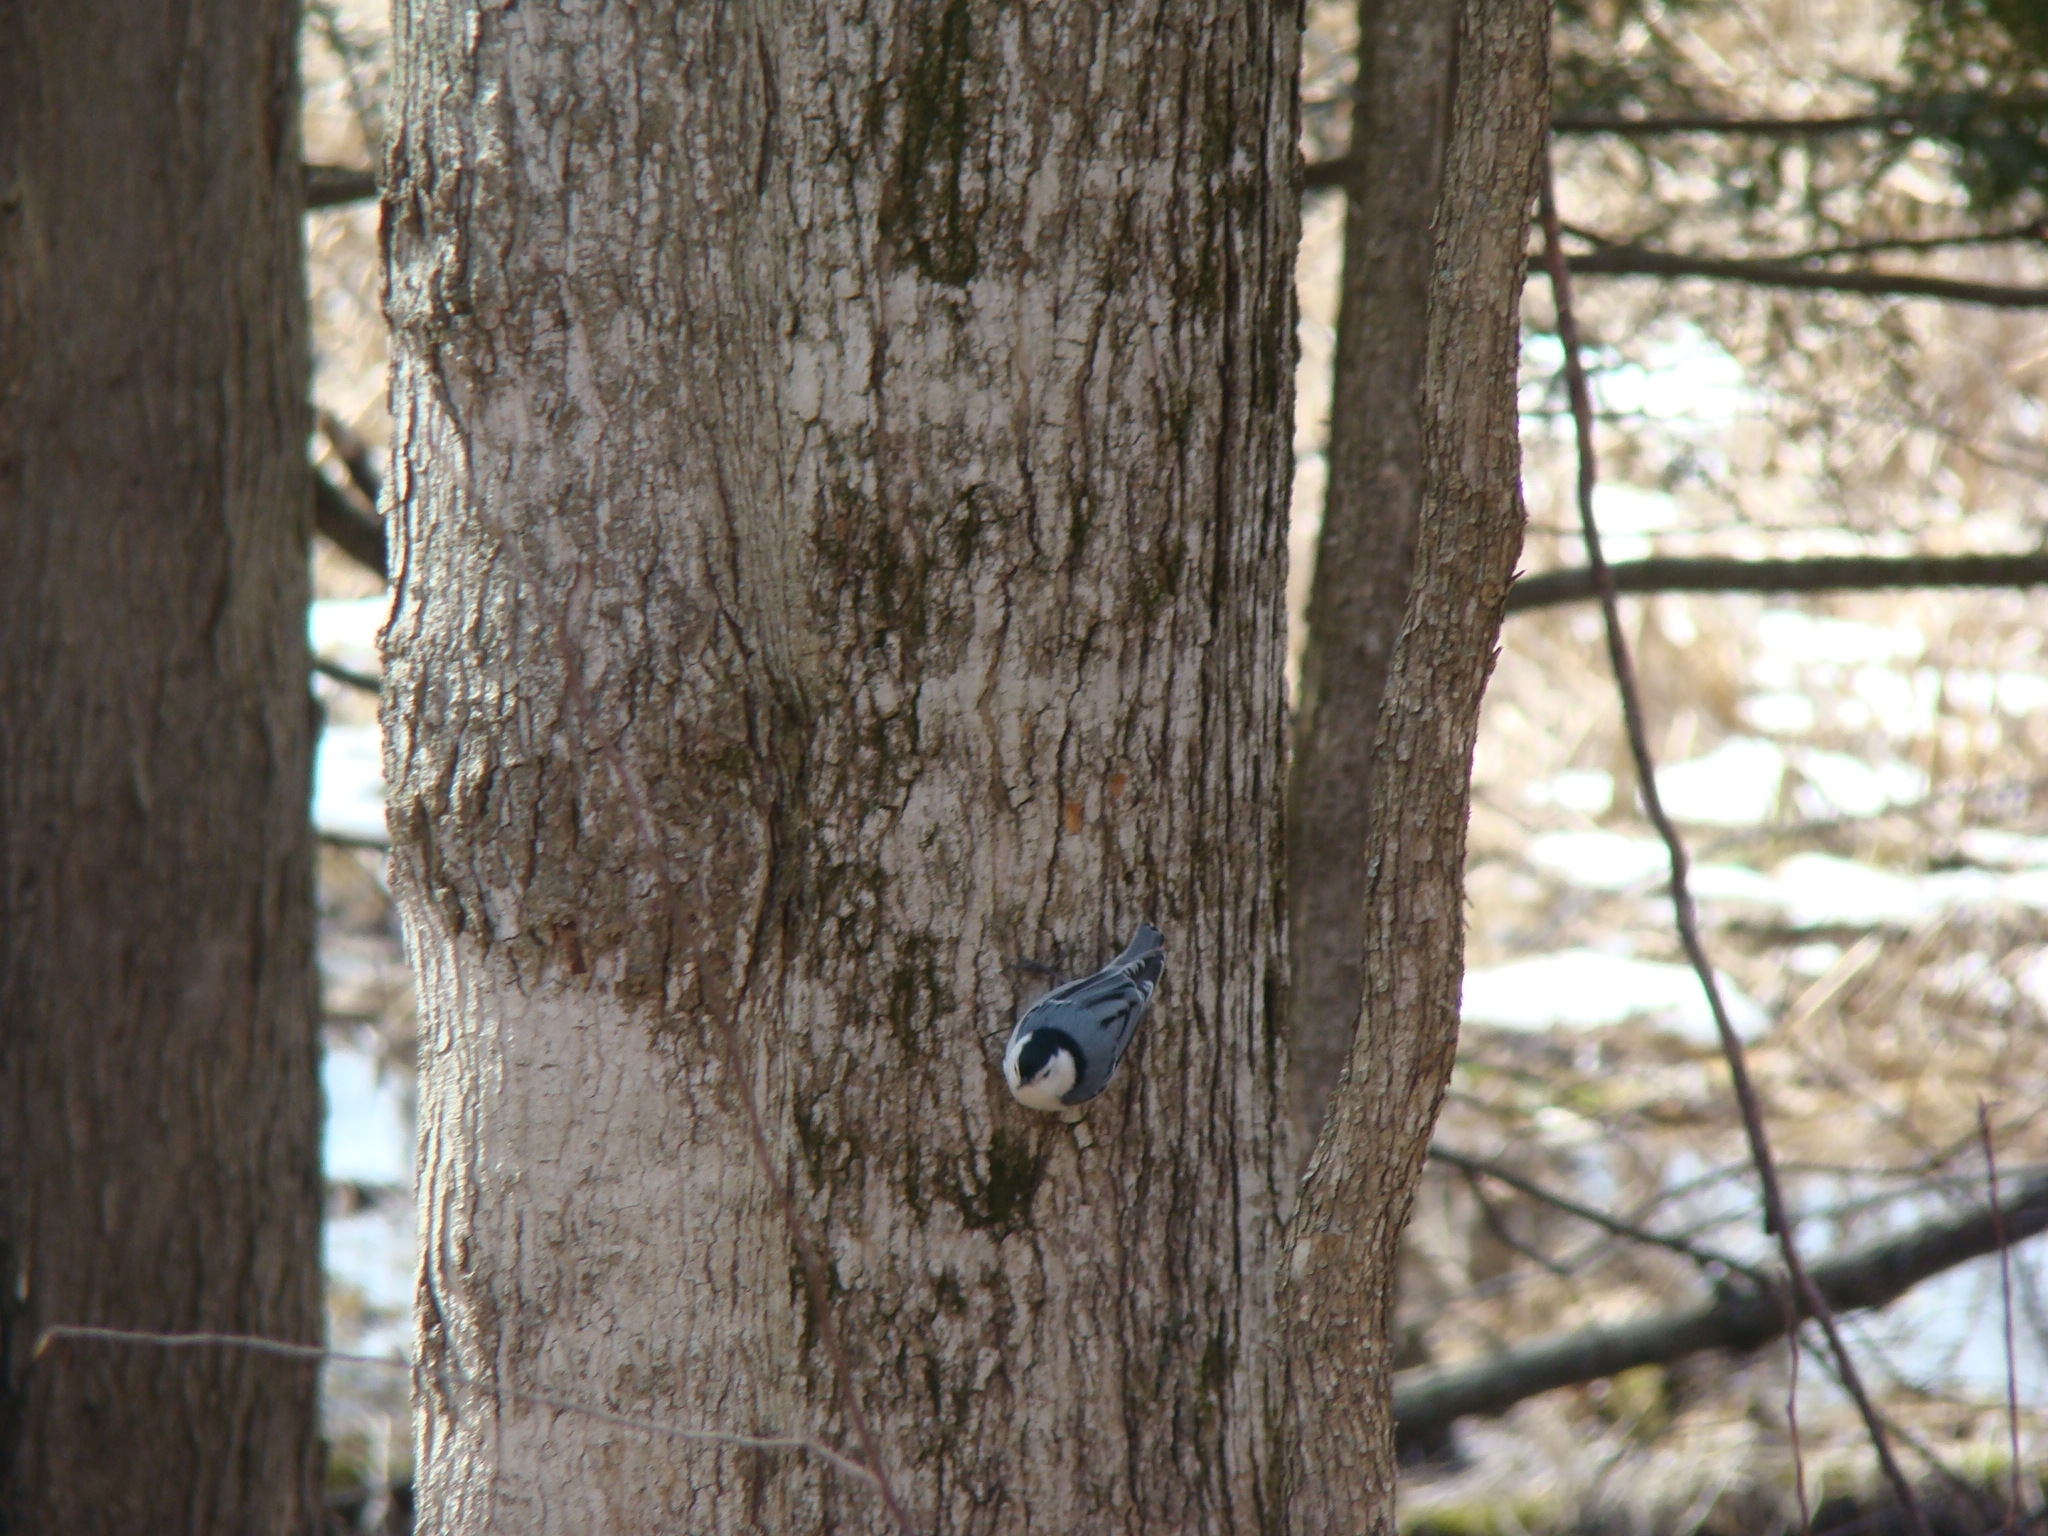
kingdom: Animalia
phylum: Chordata
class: Aves
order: Passeriformes
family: Sittidae
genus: Sitta
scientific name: Sitta carolinensis
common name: White-breasted nuthatch
